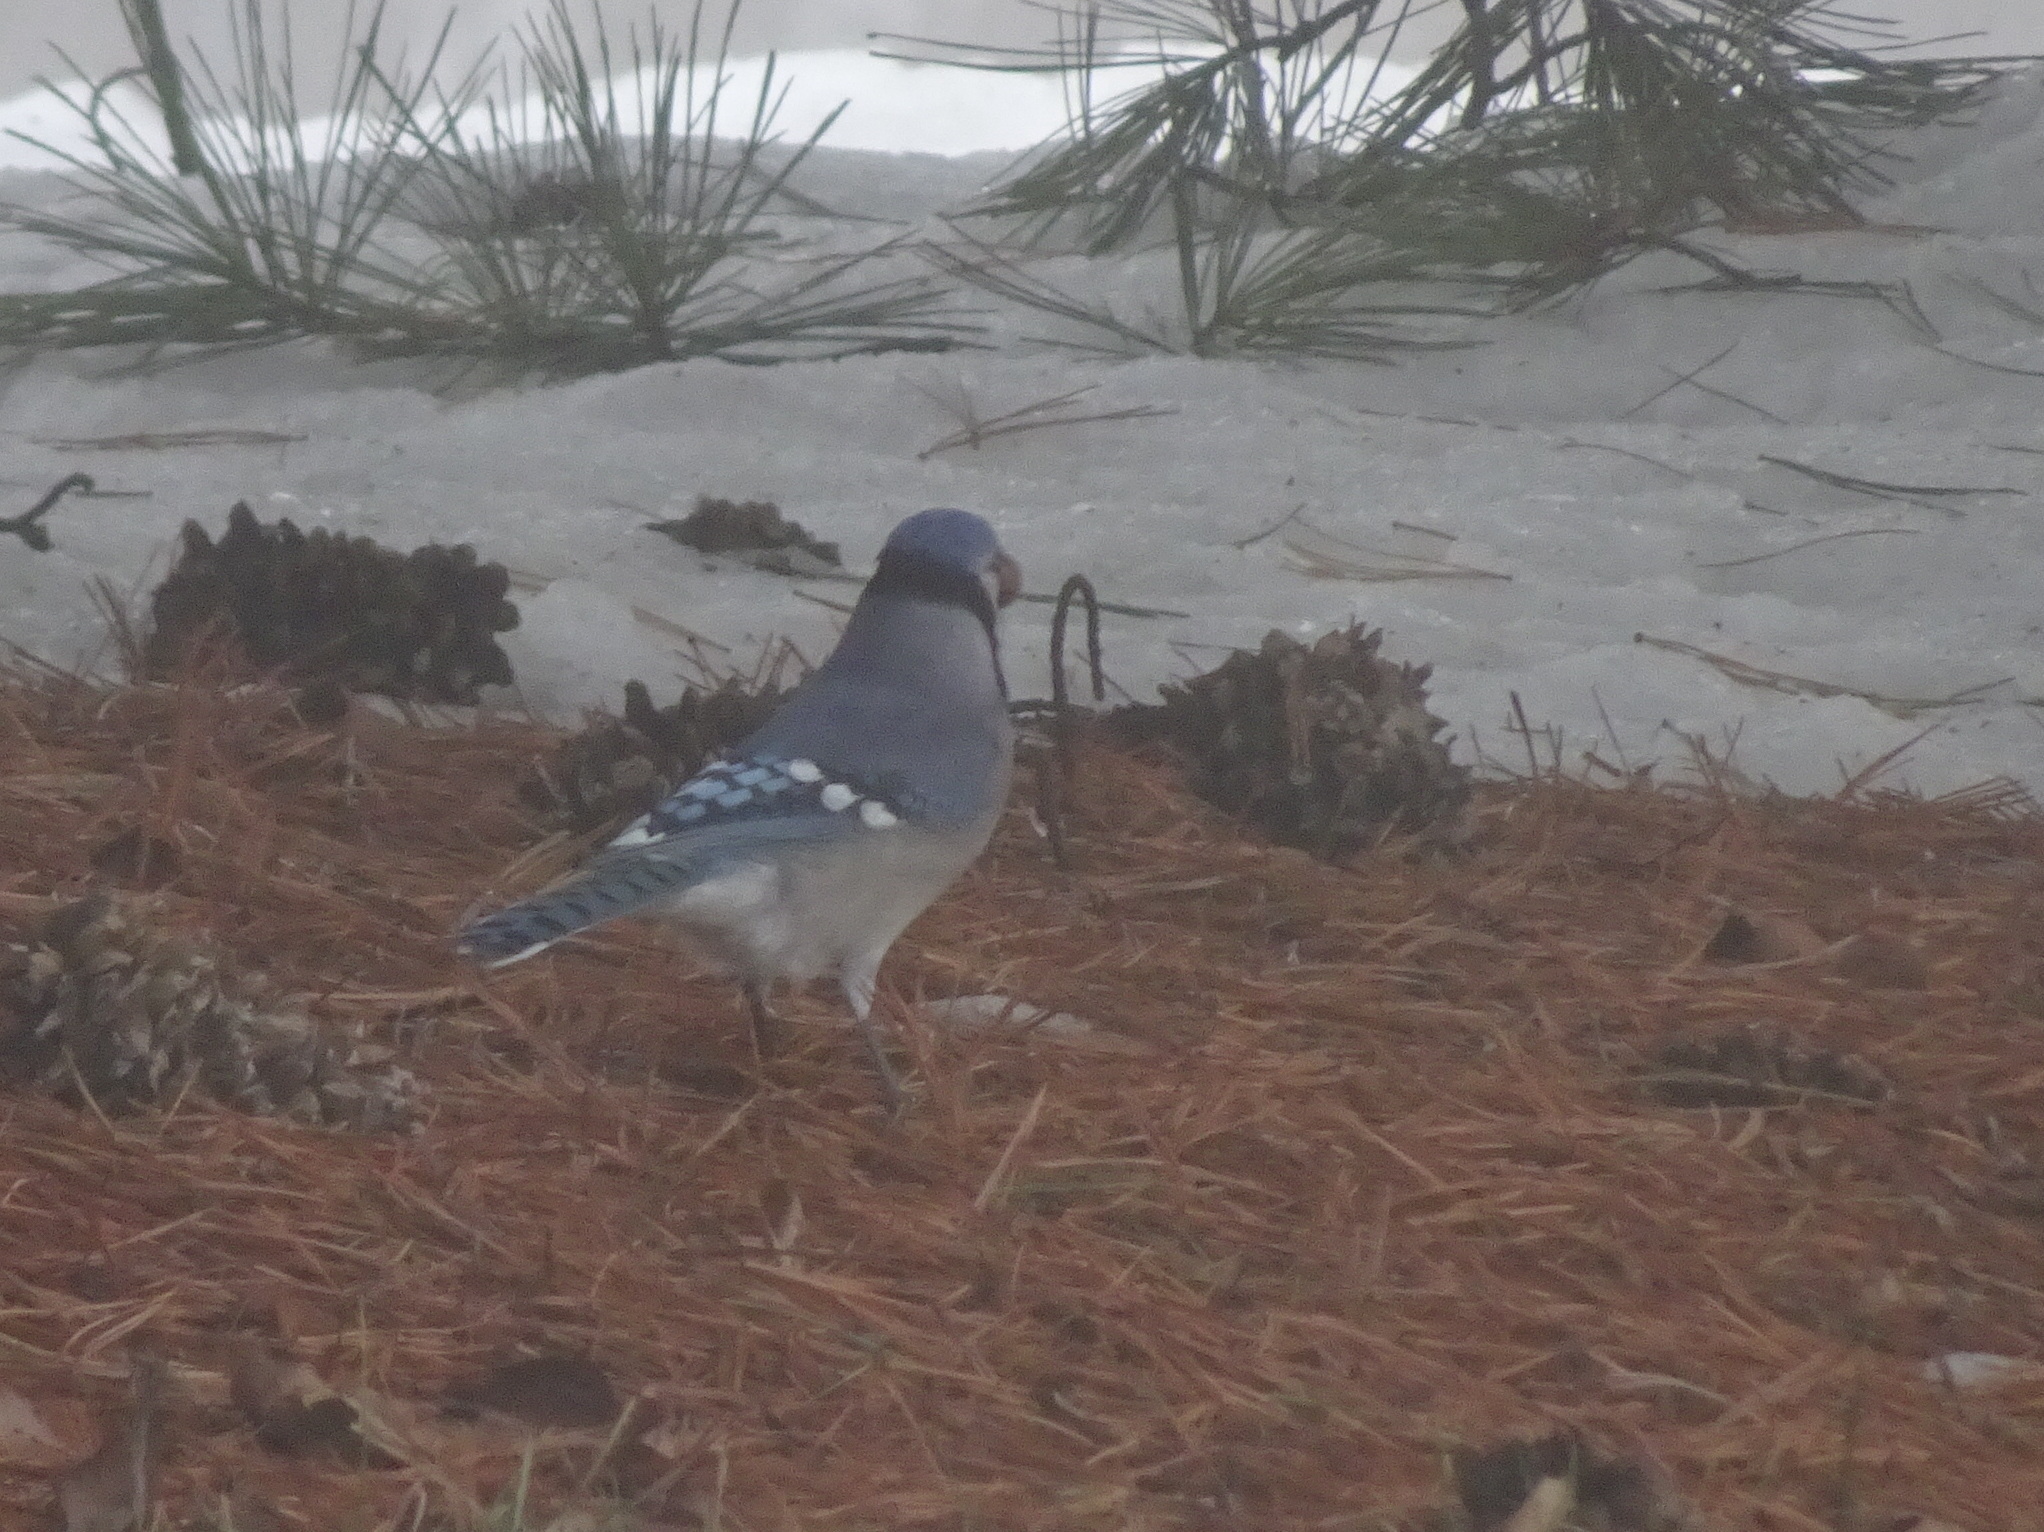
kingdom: Animalia
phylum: Chordata
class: Aves
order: Passeriformes
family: Corvidae
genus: Cyanocitta
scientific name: Cyanocitta cristata
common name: Blue jay
